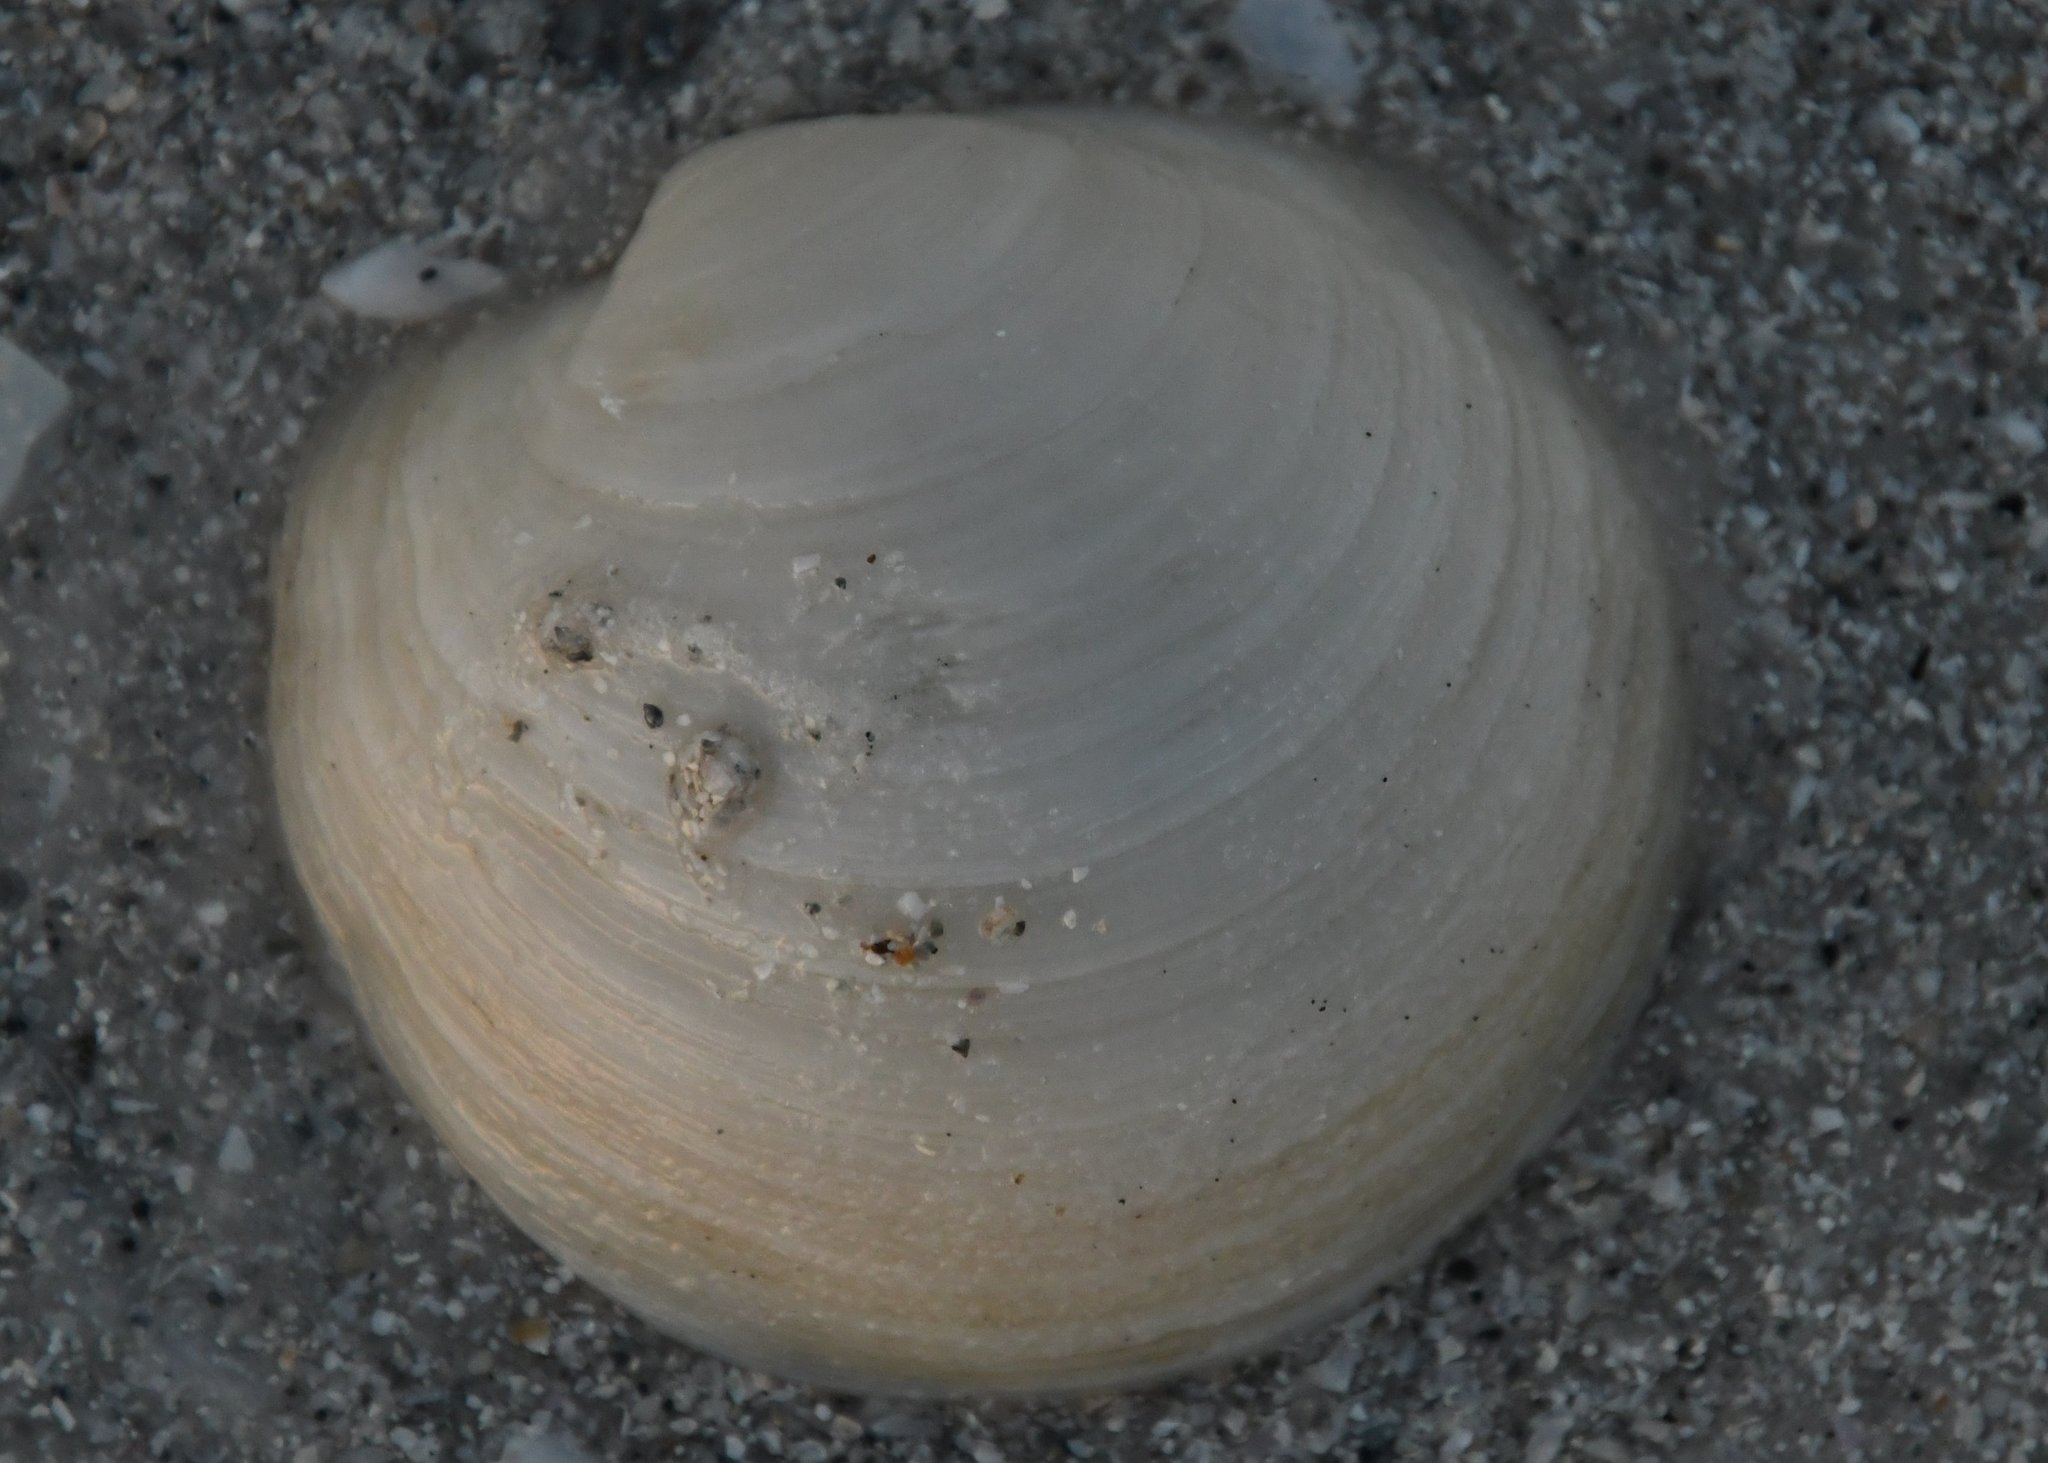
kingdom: Animalia
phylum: Mollusca
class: Bivalvia
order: Lucinida
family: Lucinidae
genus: Anodontia
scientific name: Anodontia alba
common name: Buttercup lucine
